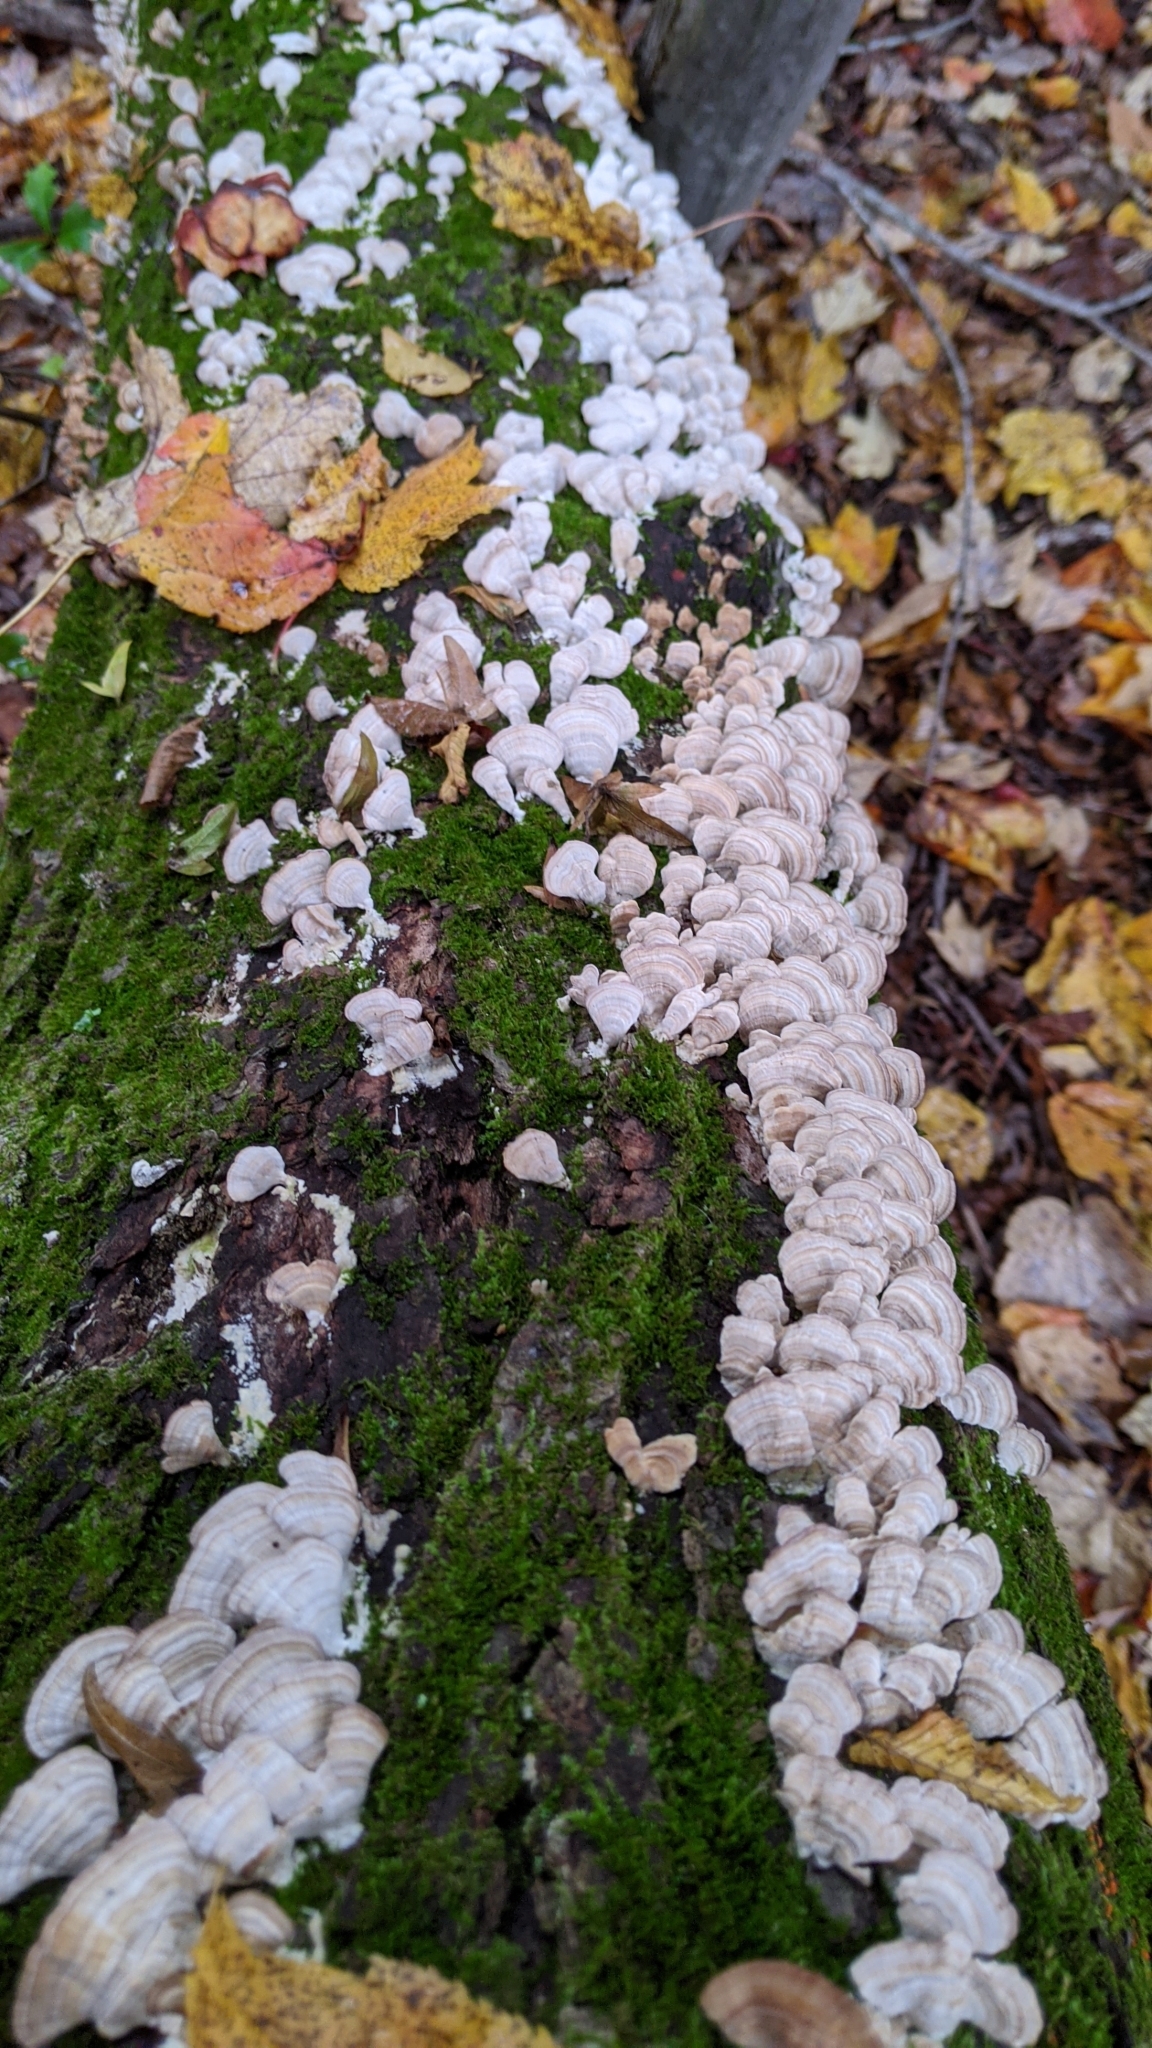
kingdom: Fungi
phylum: Basidiomycota
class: Agaricomycetes
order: Hymenochaetales
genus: Trichaptum
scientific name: Trichaptum biforme
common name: Violet-toothed polypore
